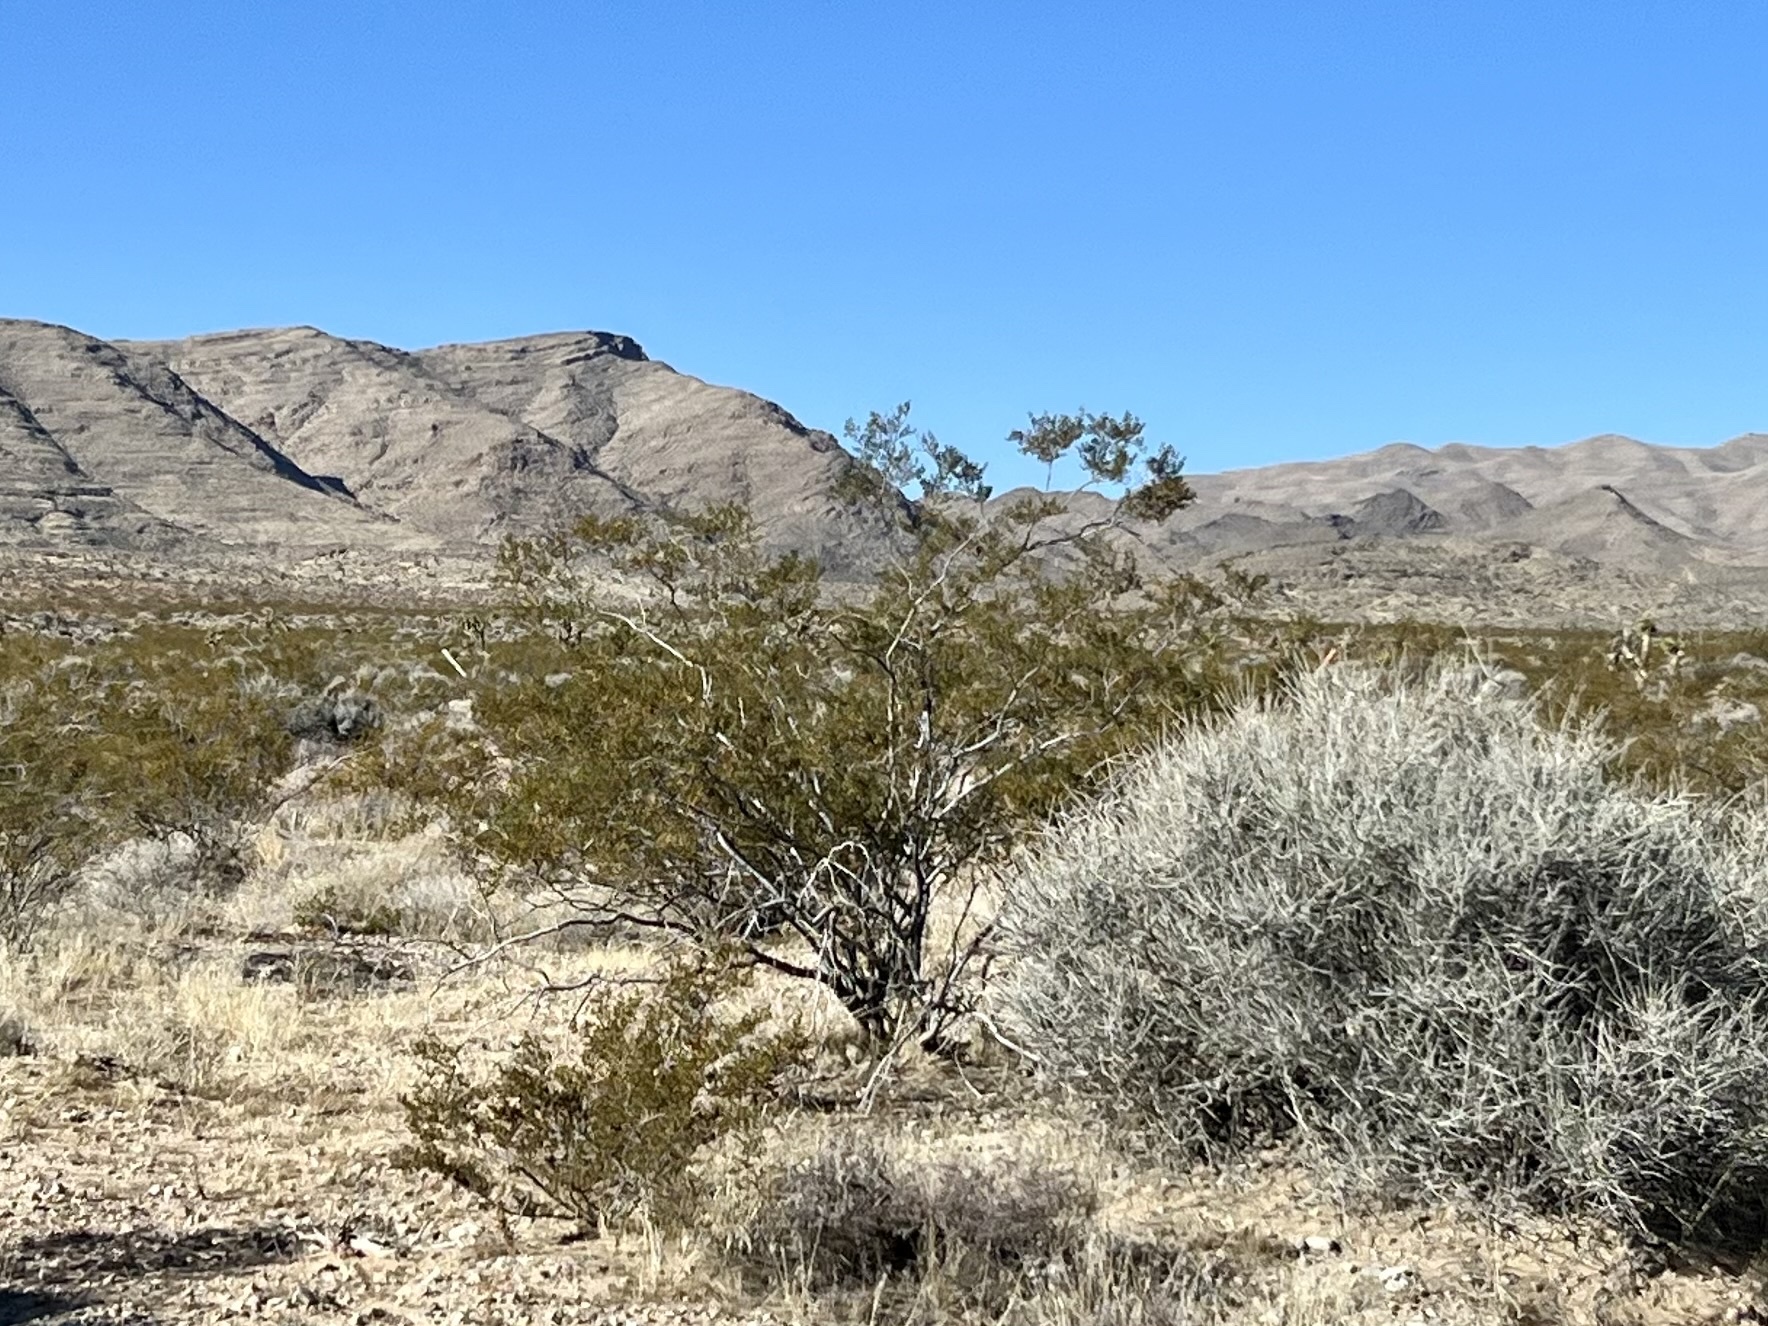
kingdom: Plantae
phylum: Tracheophyta
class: Magnoliopsida
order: Zygophyllales
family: Zygophyllaceae
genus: Larrea
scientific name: Larrea tridentata
